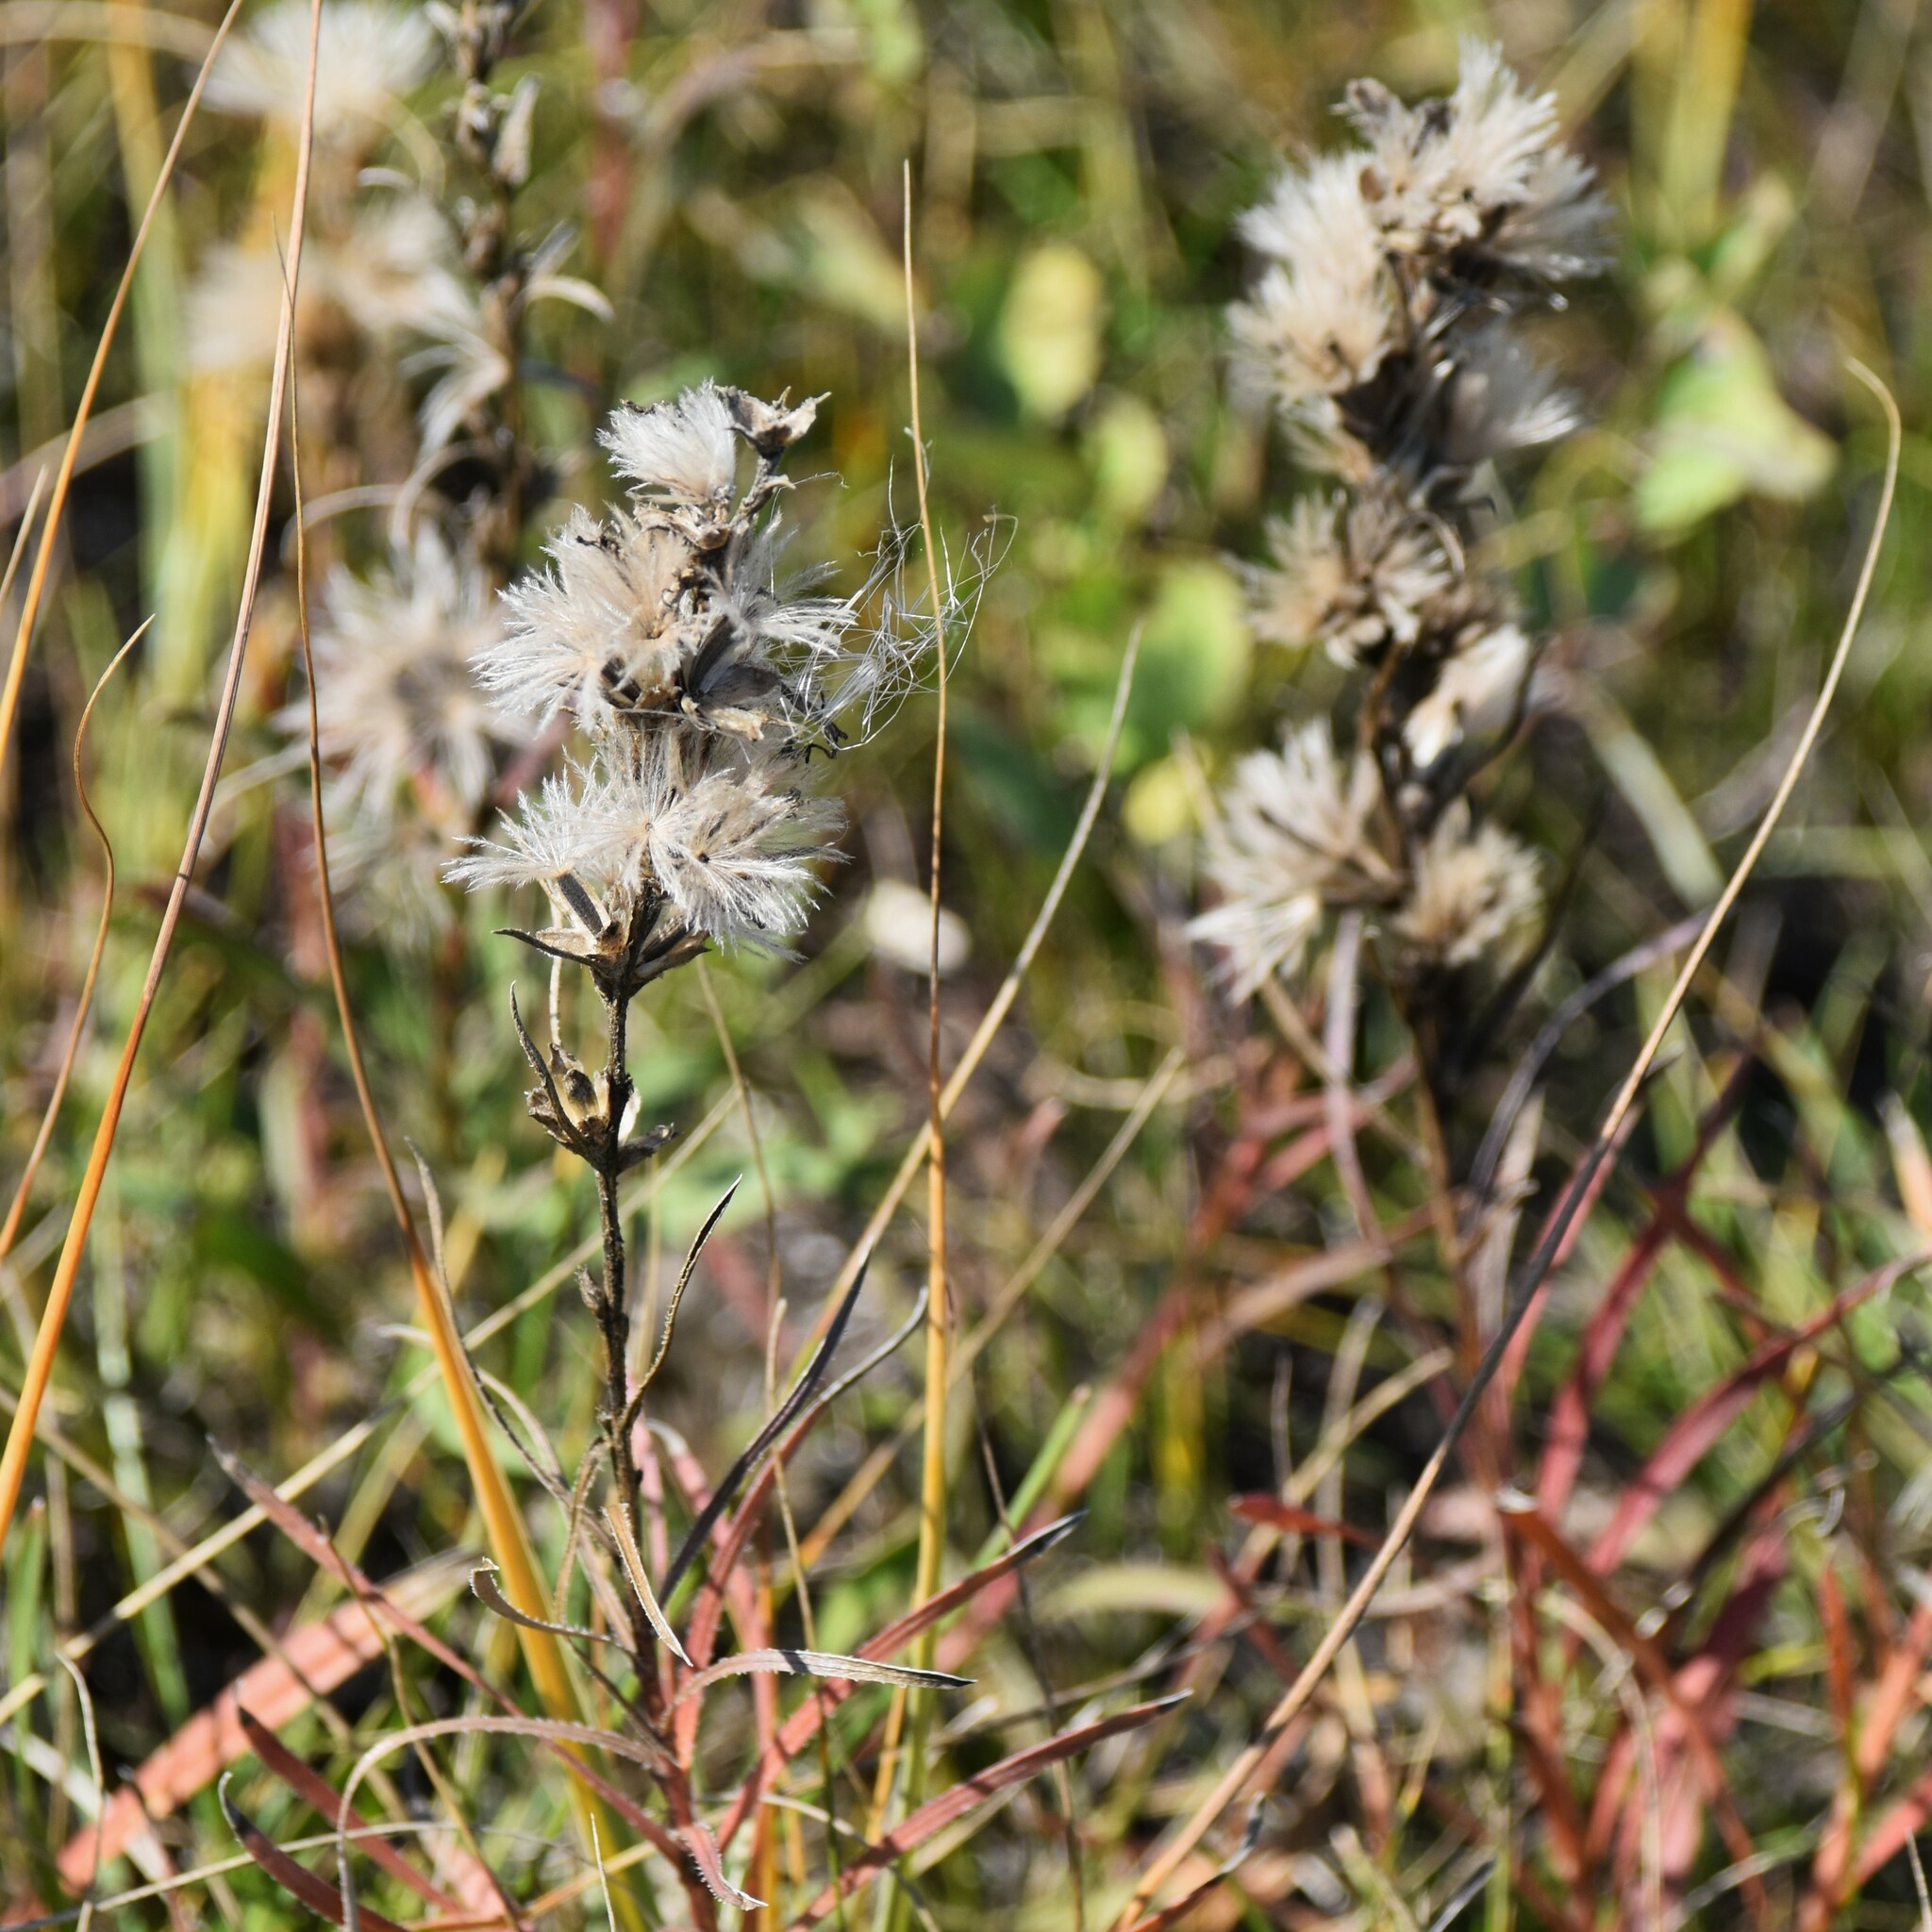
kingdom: Plantae
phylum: Tracheophyta
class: Magnoliopsida
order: Asterales
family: Asteraceae
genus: Liatris
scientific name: Liatris punctata
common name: Dotted gayfeather
